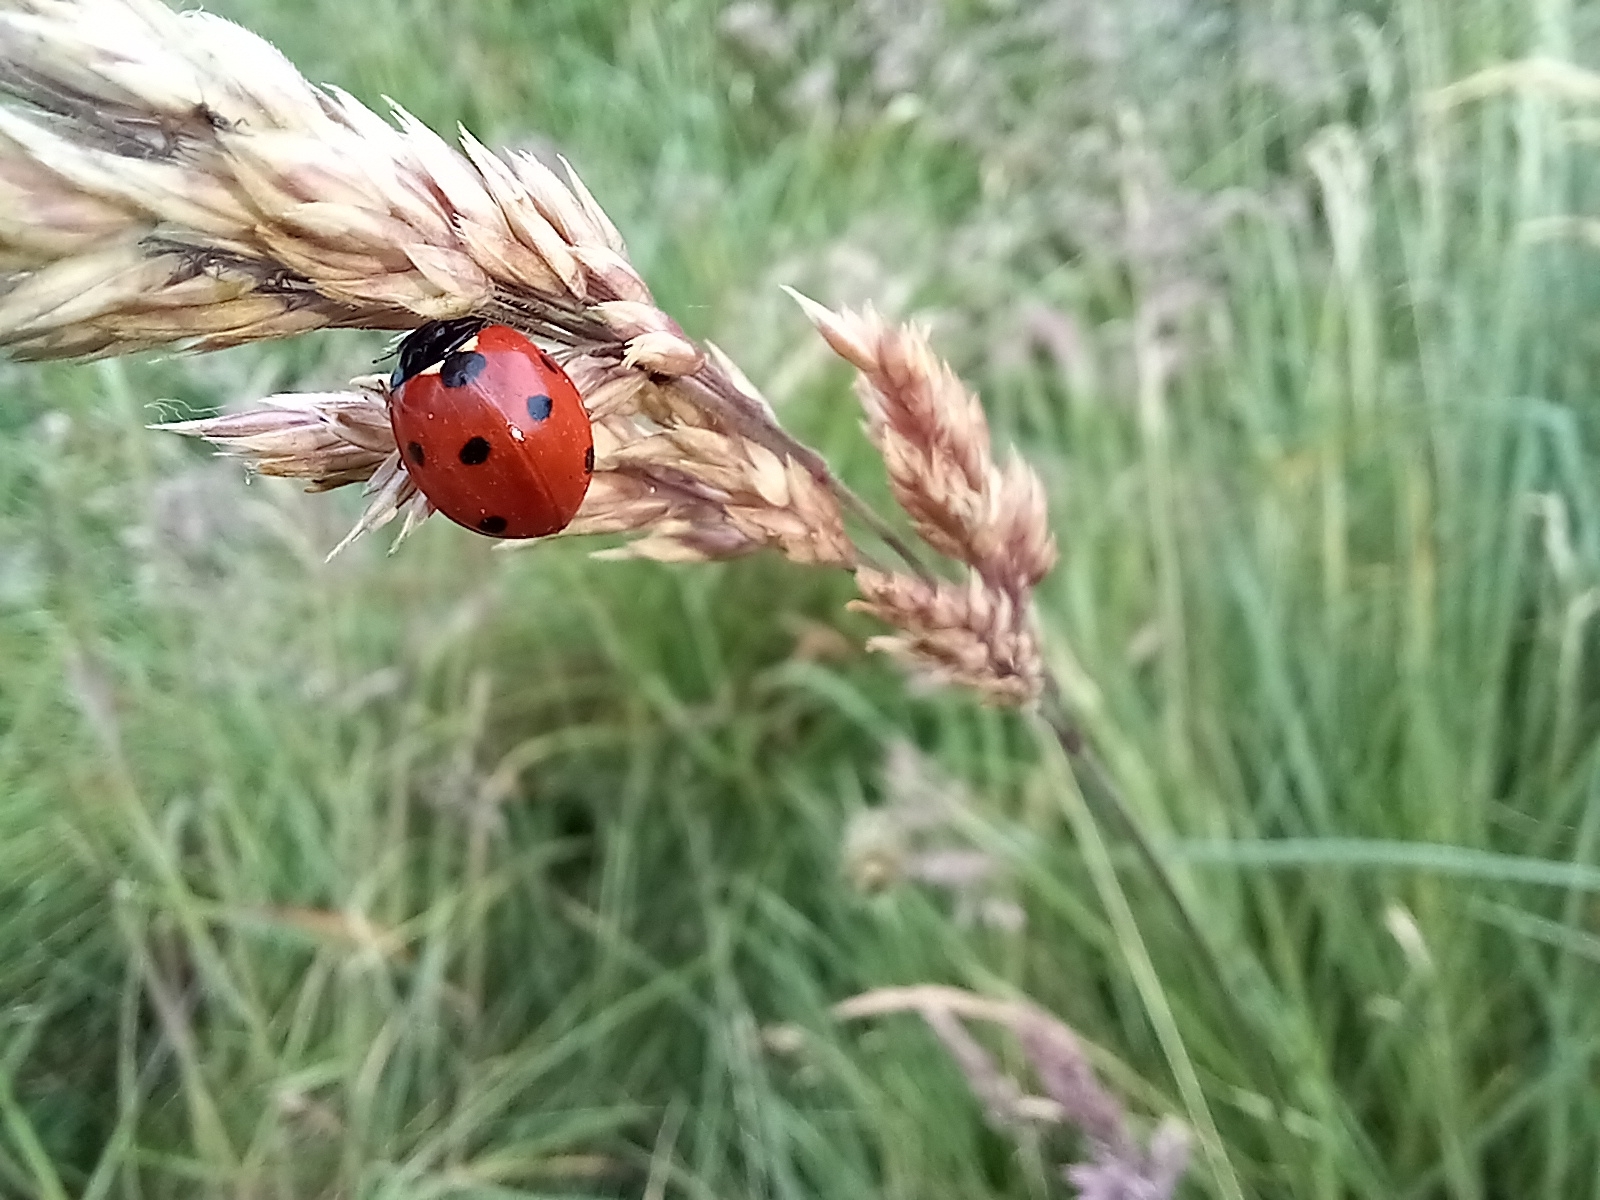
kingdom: Animalia
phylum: Arthropoda
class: Insecta
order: Coleoptera
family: Coccinellidae
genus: Coccinella
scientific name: Coccinella septempunctata
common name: Sevenspotted lady beetle
